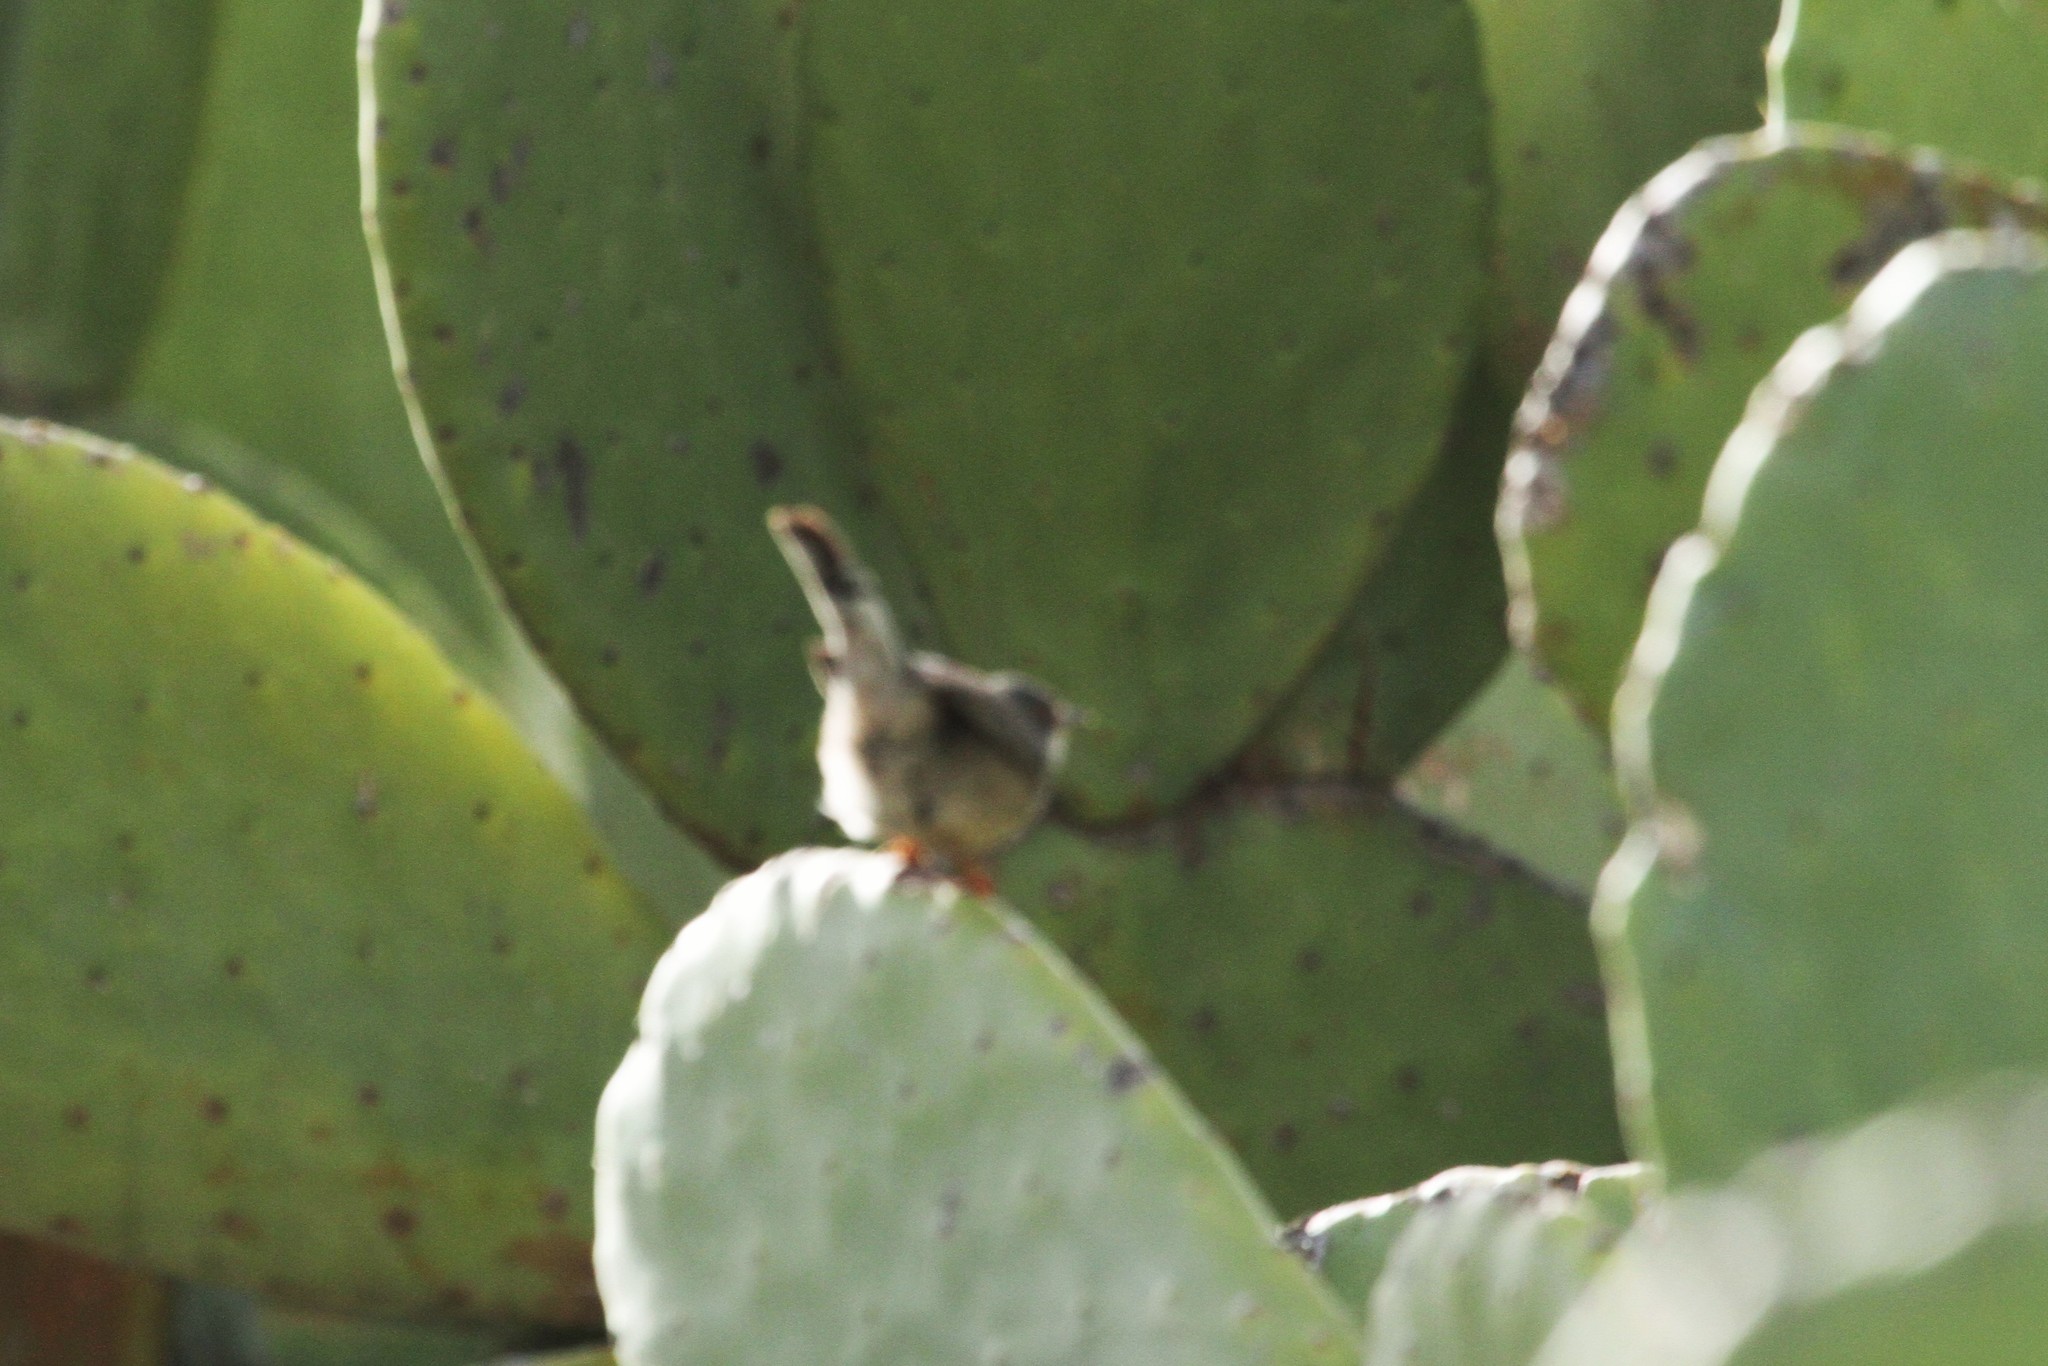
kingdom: Animalia
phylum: Chordata
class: Aves
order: Passeriformes
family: Sylviidae
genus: Curruca
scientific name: Curruca melanocephala
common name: Sardinian warbler
